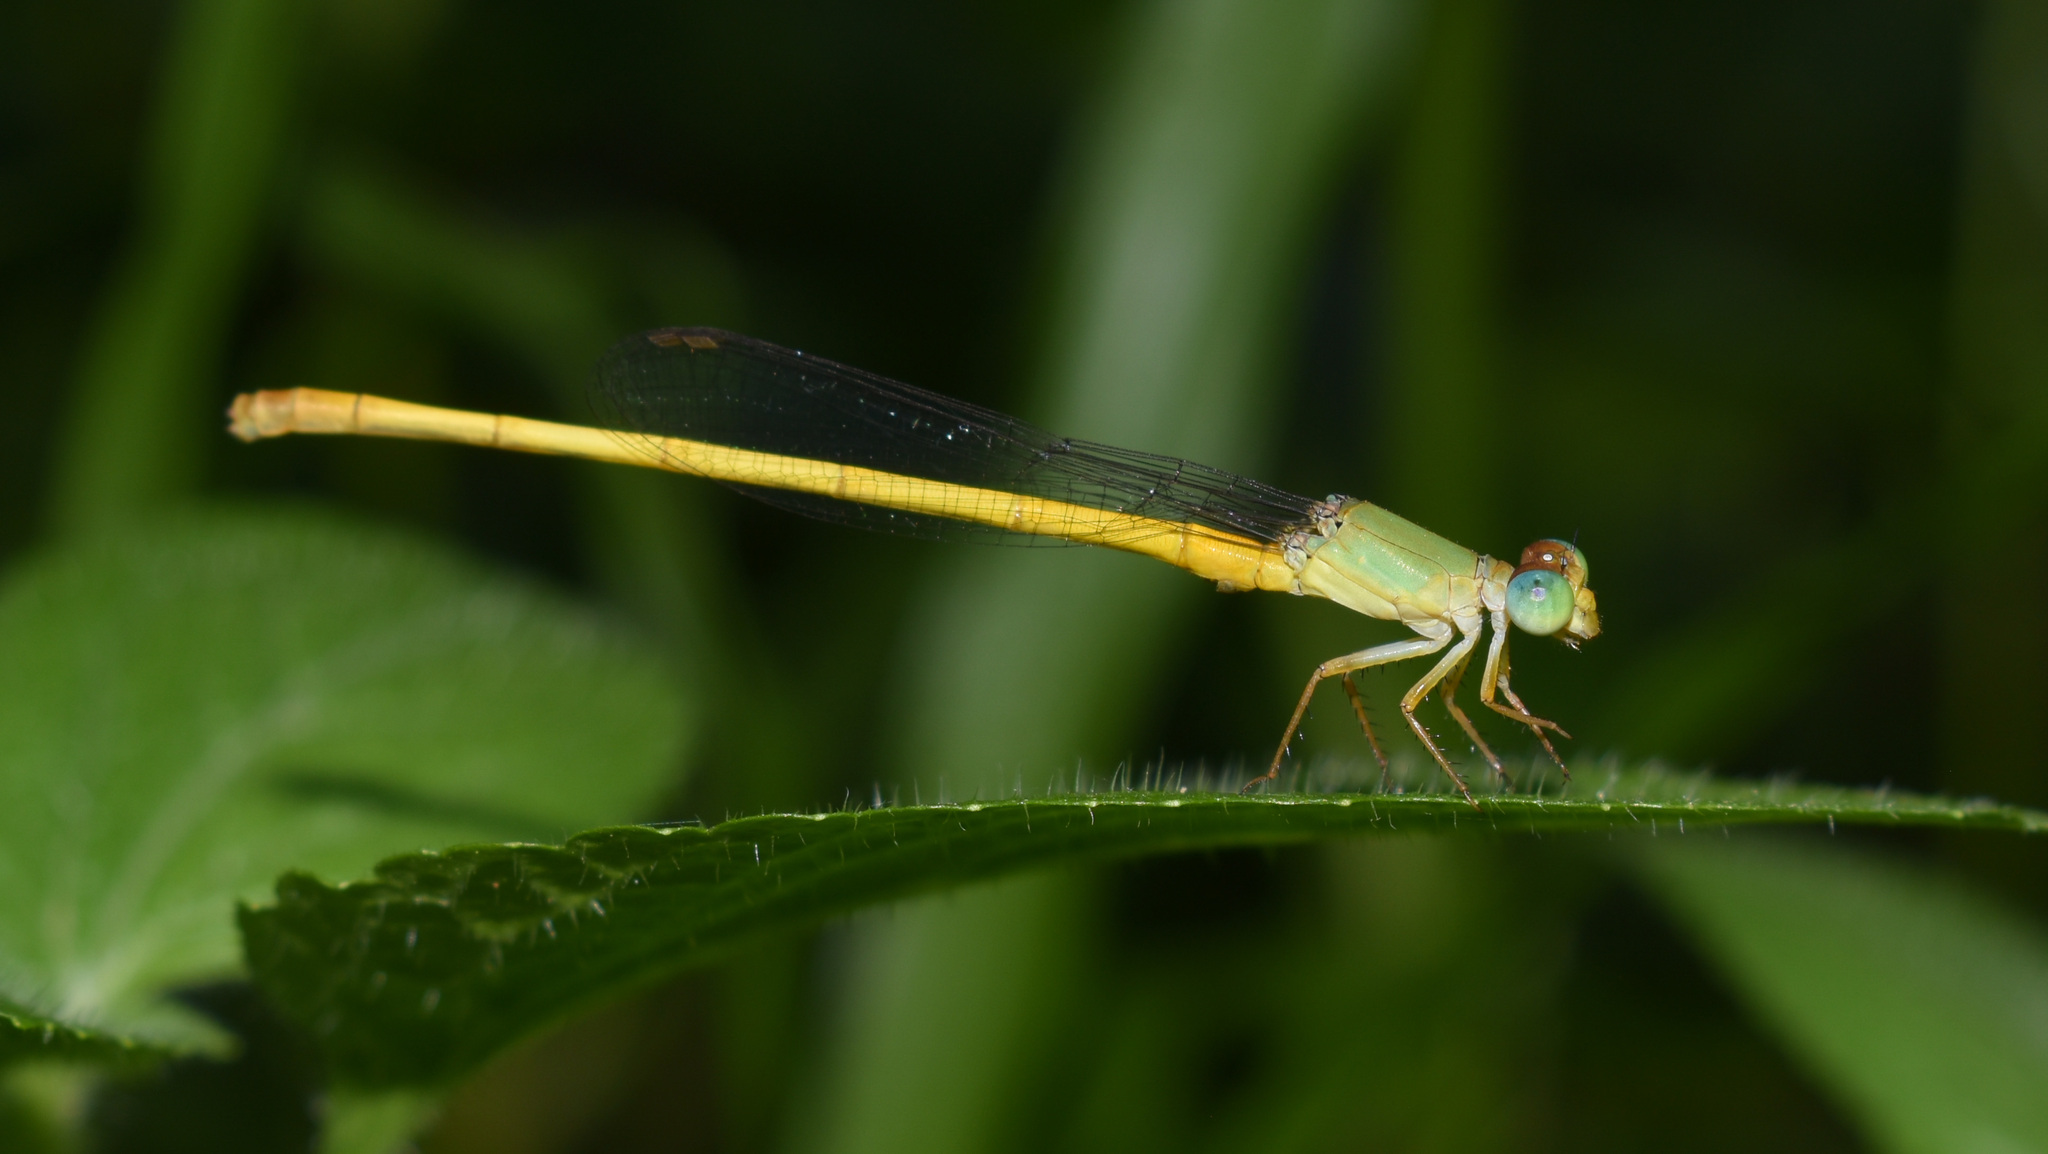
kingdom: Animalia
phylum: Arthropoda
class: Insecta
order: Odonata
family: Coenagrionidae
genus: Ceriagrion
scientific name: Ceriagrion coromandelianum
